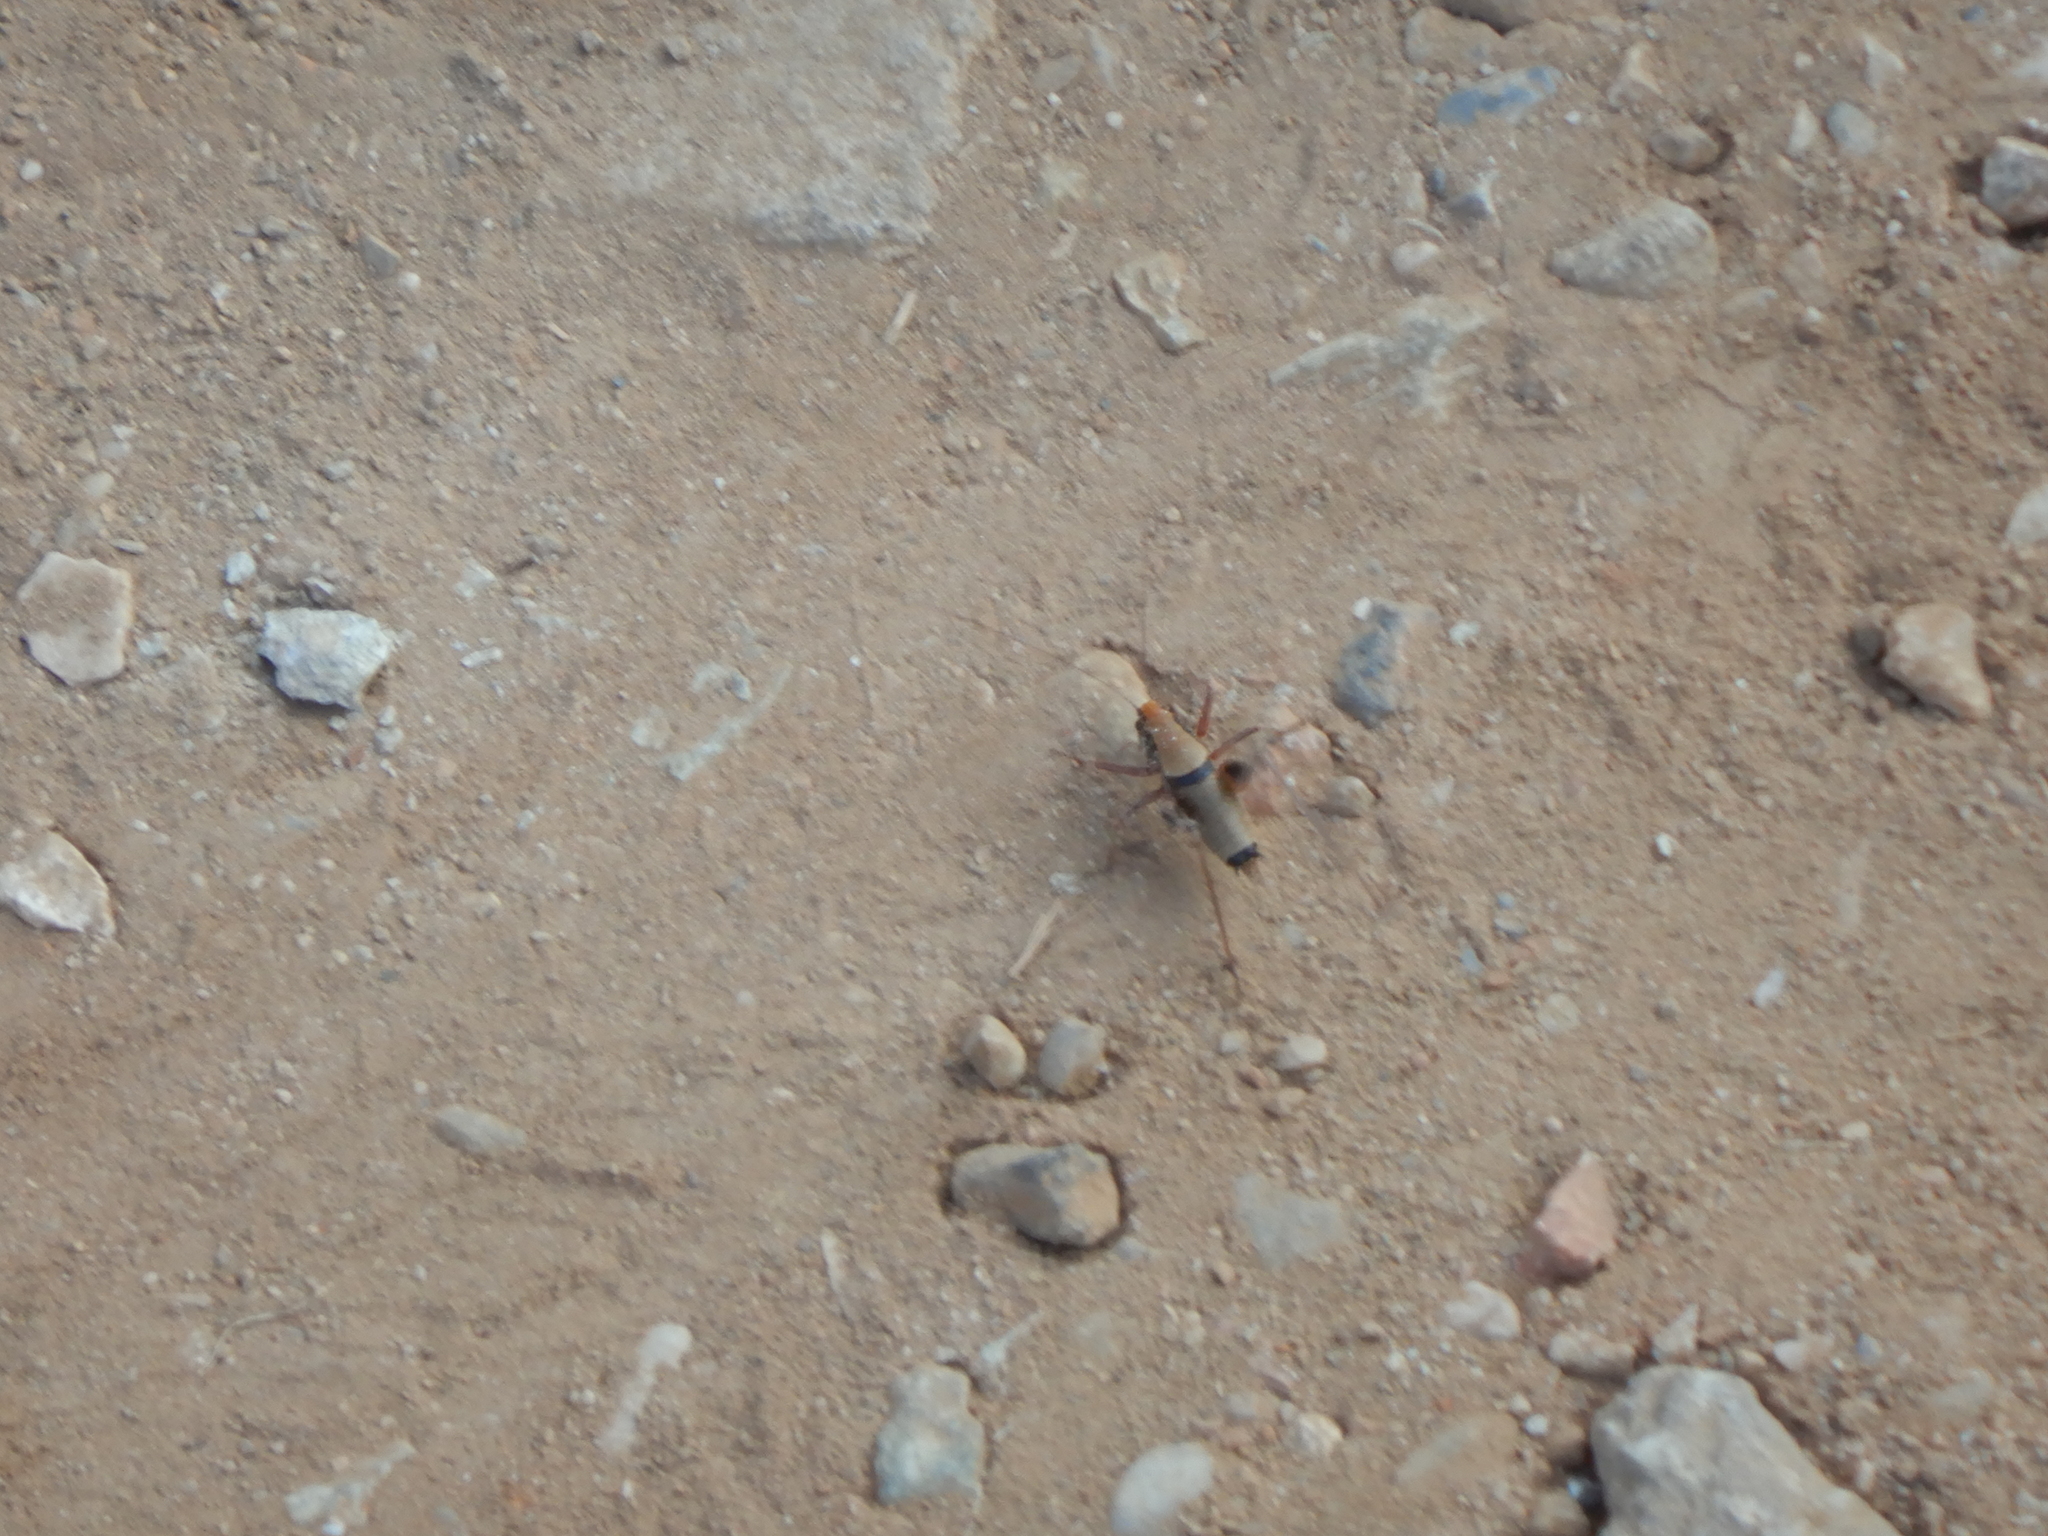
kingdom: Animalia
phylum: Arthropoda
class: Insecta
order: Orthoptera
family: Tettigoniidae
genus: Eupholidoptera
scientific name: Eupholidoptera megastyla
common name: Greek marbled bush-cricket
